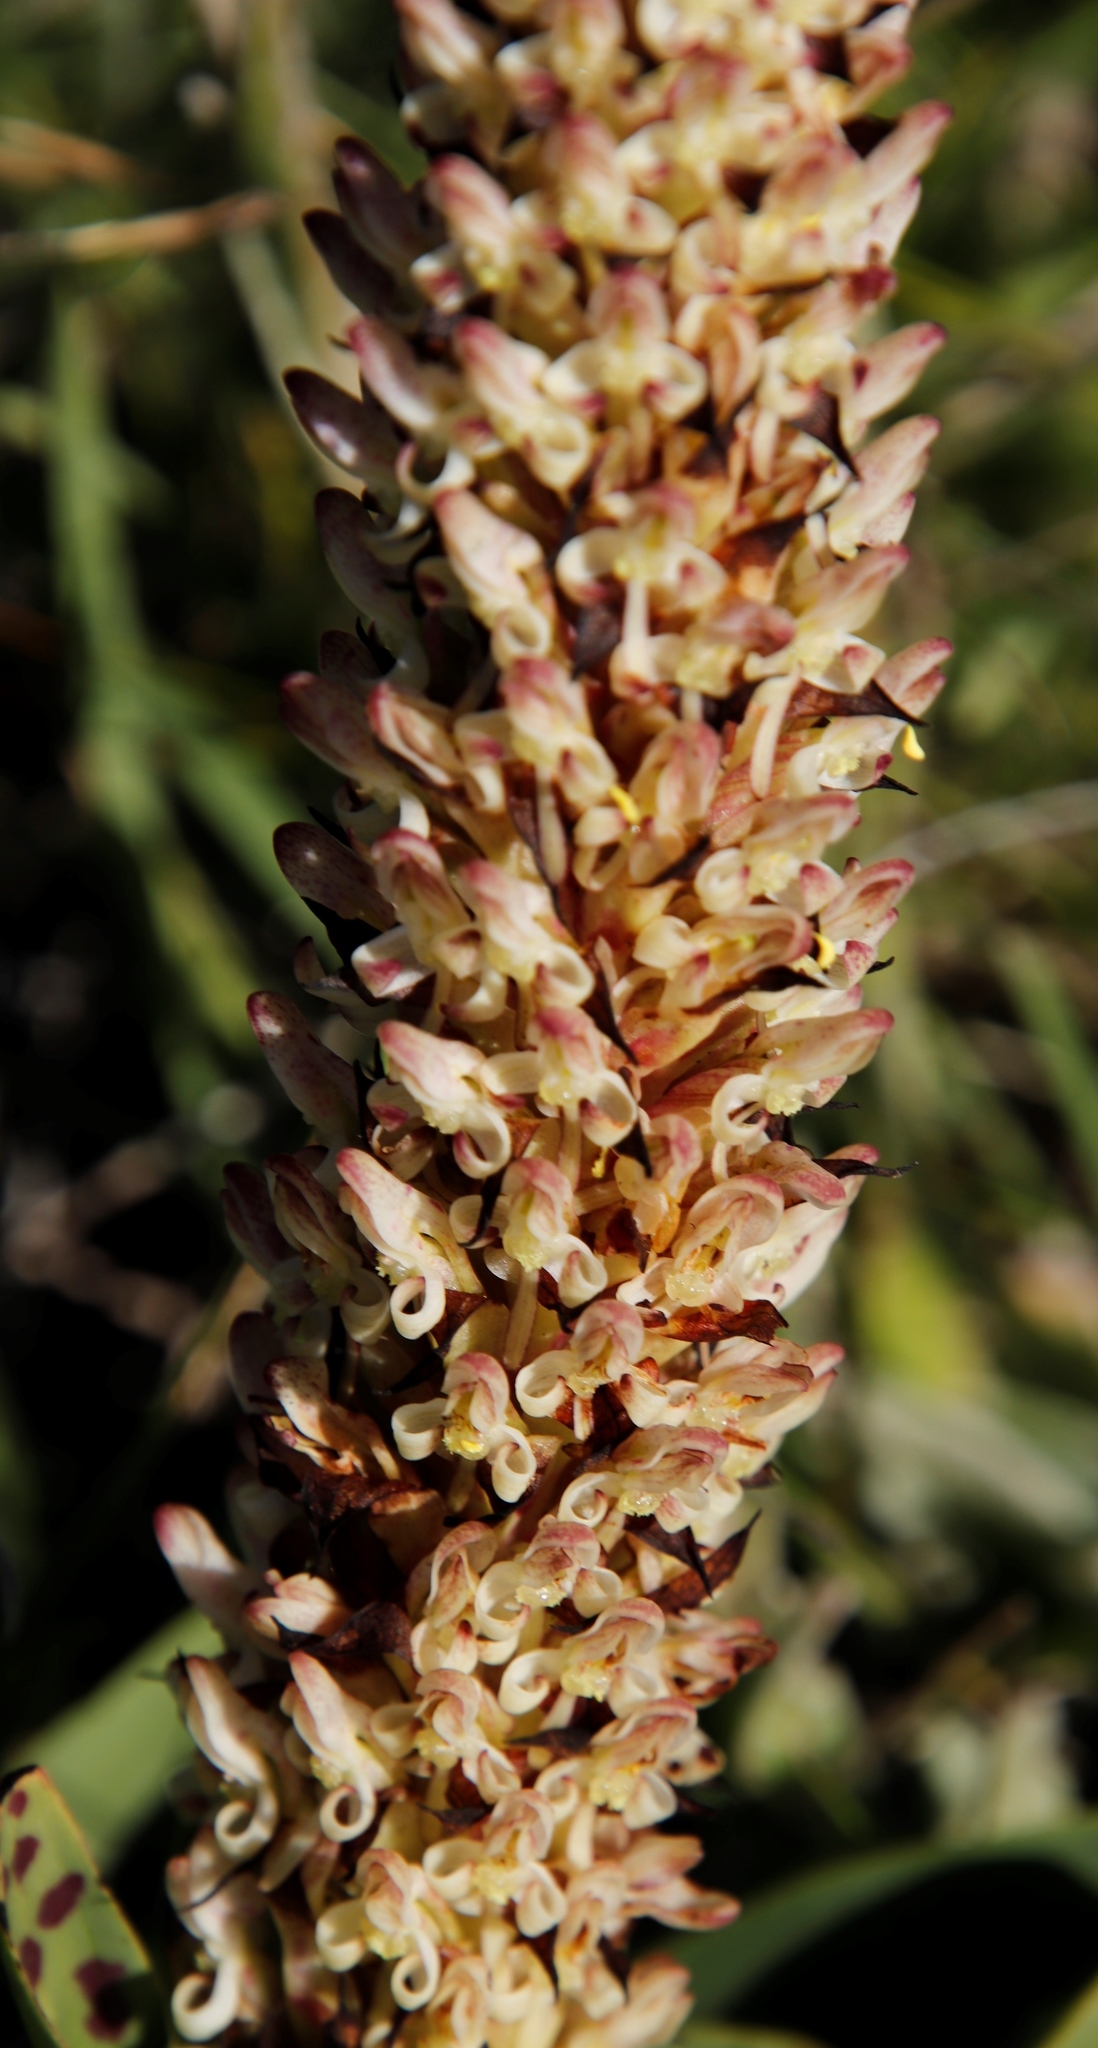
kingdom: Plantae
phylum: Tracheophyta
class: Liliopsida
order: Asparagales
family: Orchidaceae
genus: Disa
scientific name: Disa fragrans
